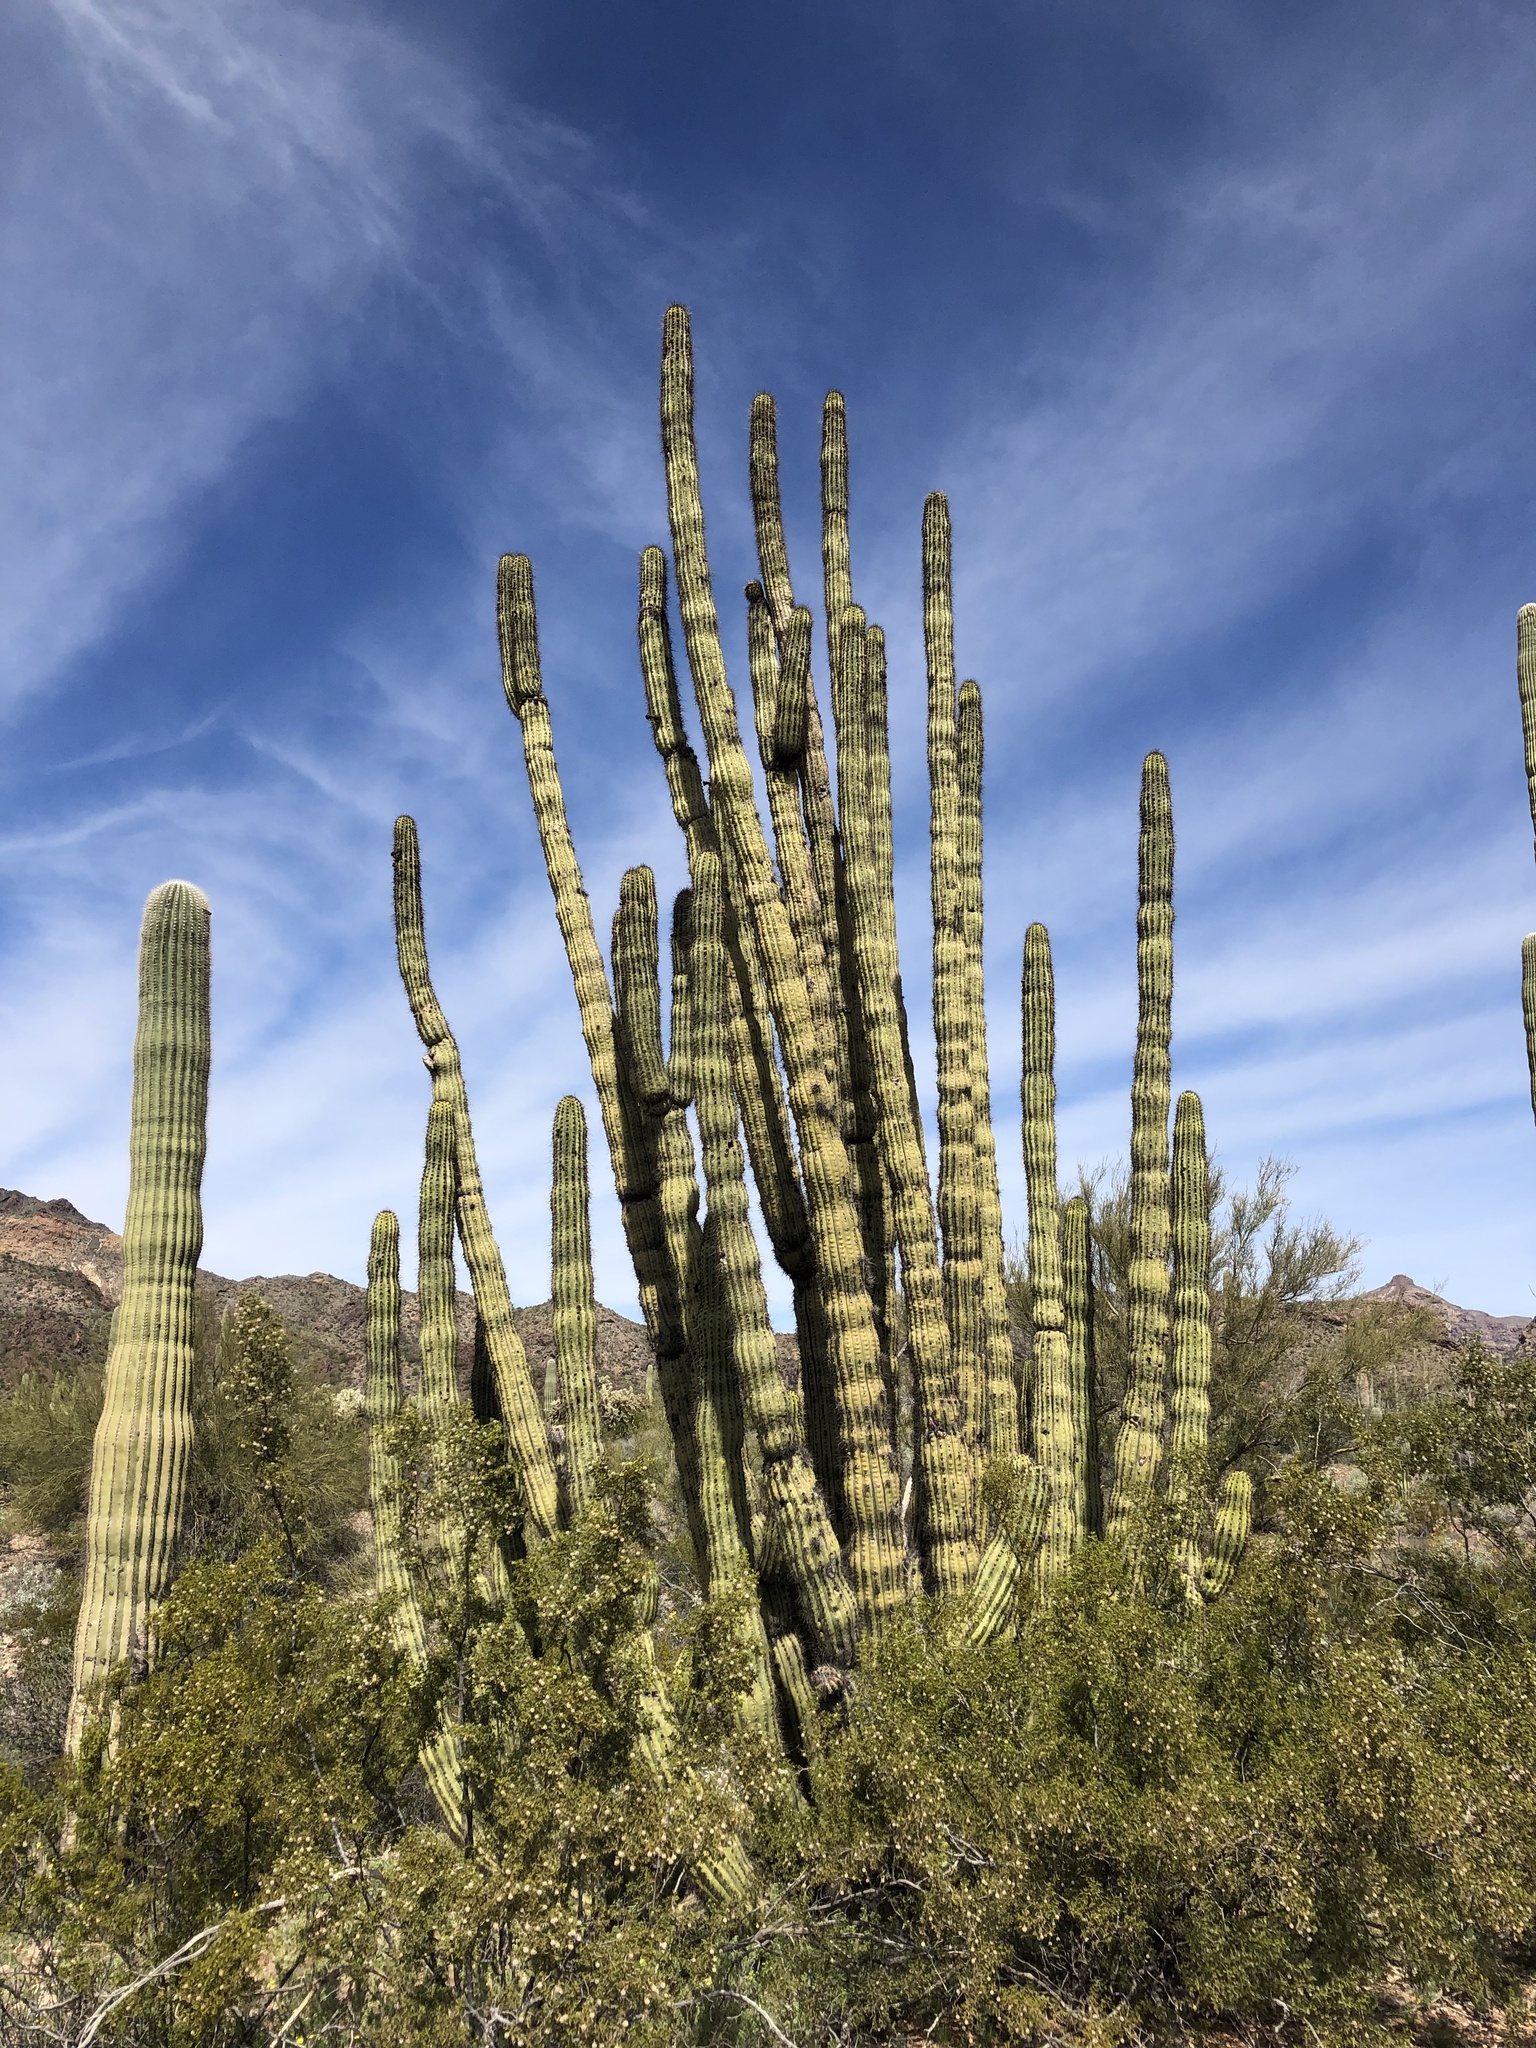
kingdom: Plantae
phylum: Tracheophyta
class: Magnoliopsida
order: Caryophyllales
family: Cactaceae
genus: Stenocereus
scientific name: Stenocereus thurberi
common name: Organ pipe cactus
